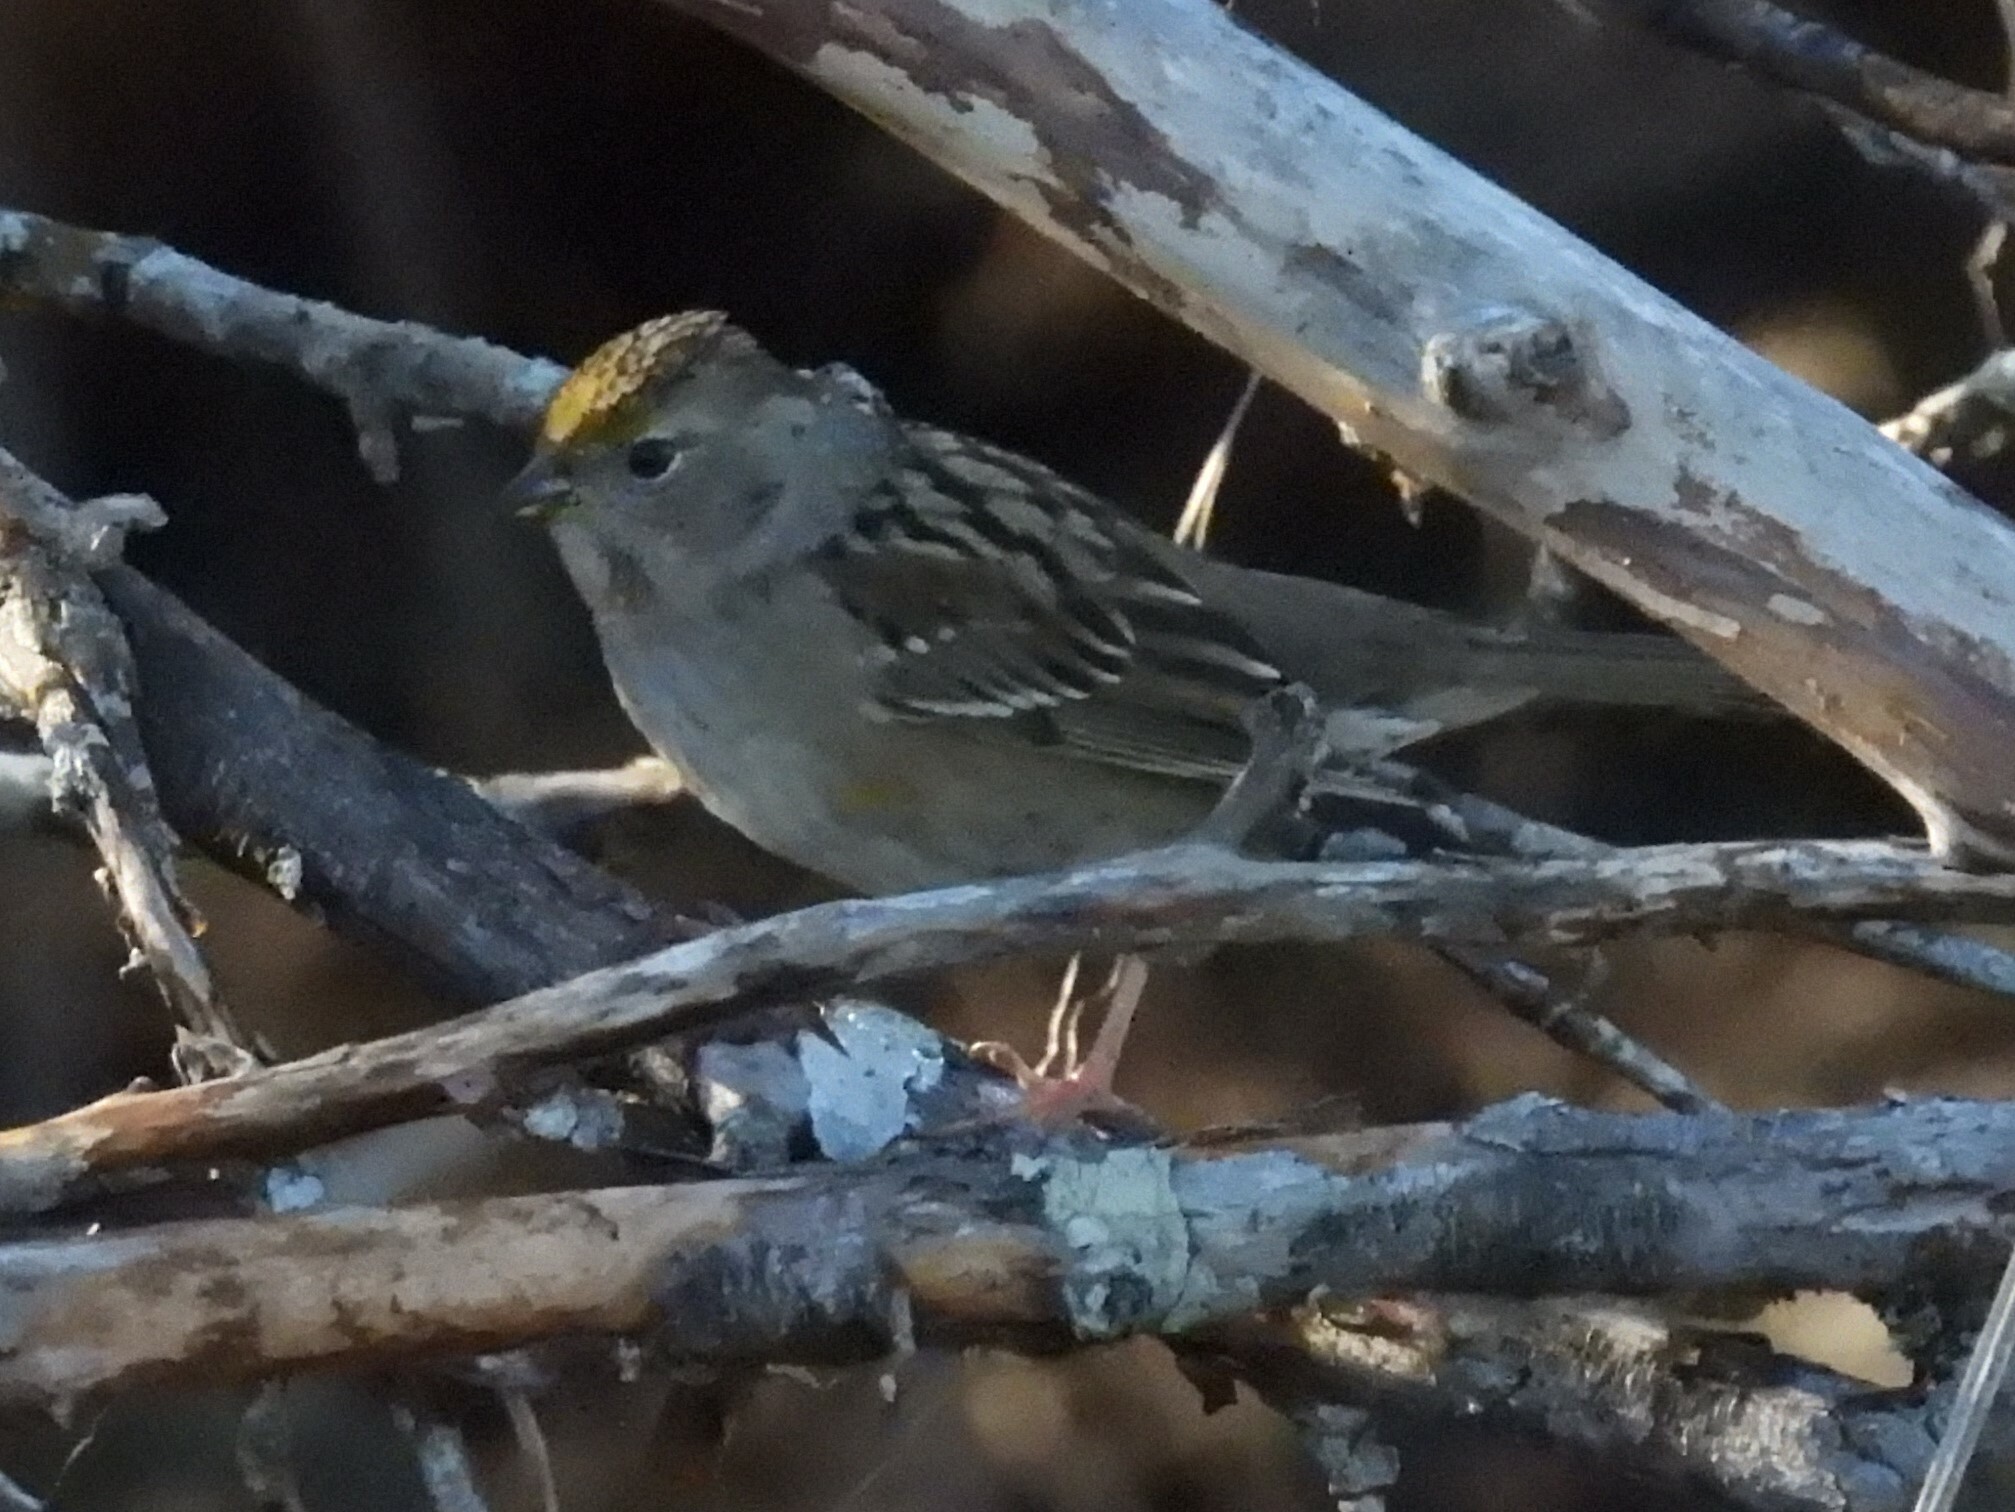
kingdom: Animalia
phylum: Chordata
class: Aves
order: Passeriformes
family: Passerellidae
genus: Zonotrichia
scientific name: Zonotrichia atricapilla
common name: Golden-crowned sparrow
